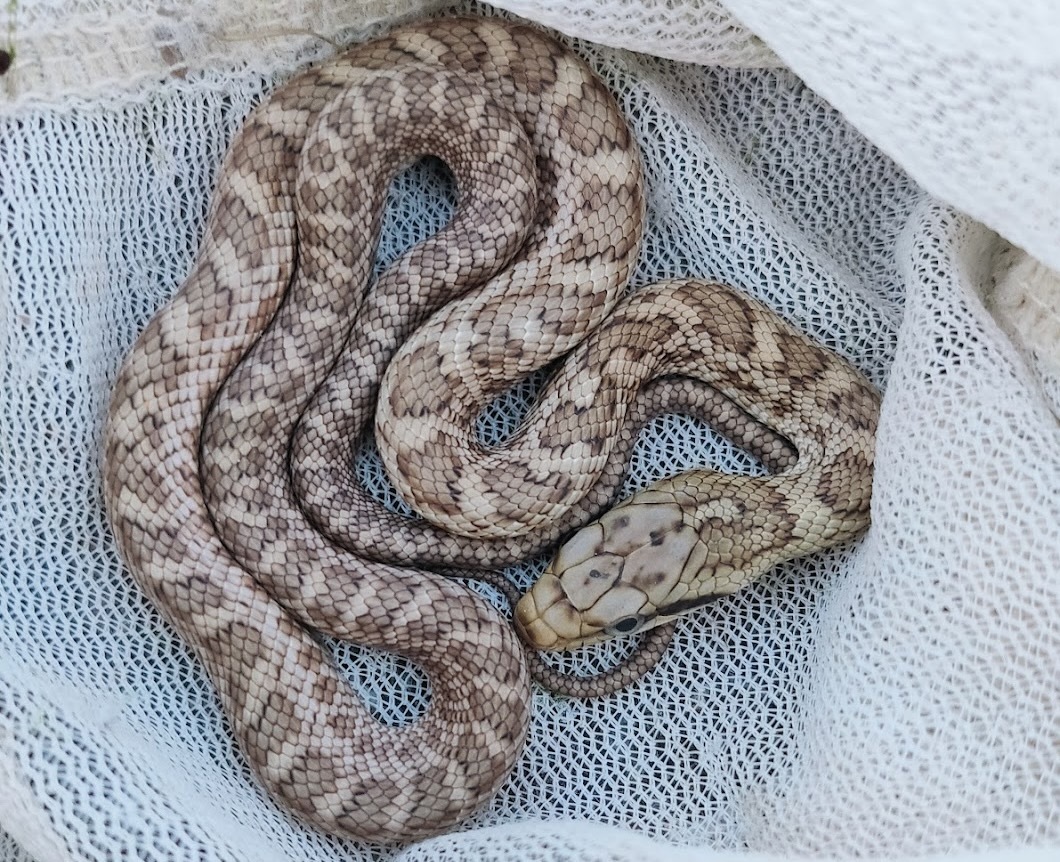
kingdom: Animalia
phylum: Chordata
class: Squamata
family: Colubridae
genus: Elaphe
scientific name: Elaphe climacophora
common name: Japanese ratsnake
